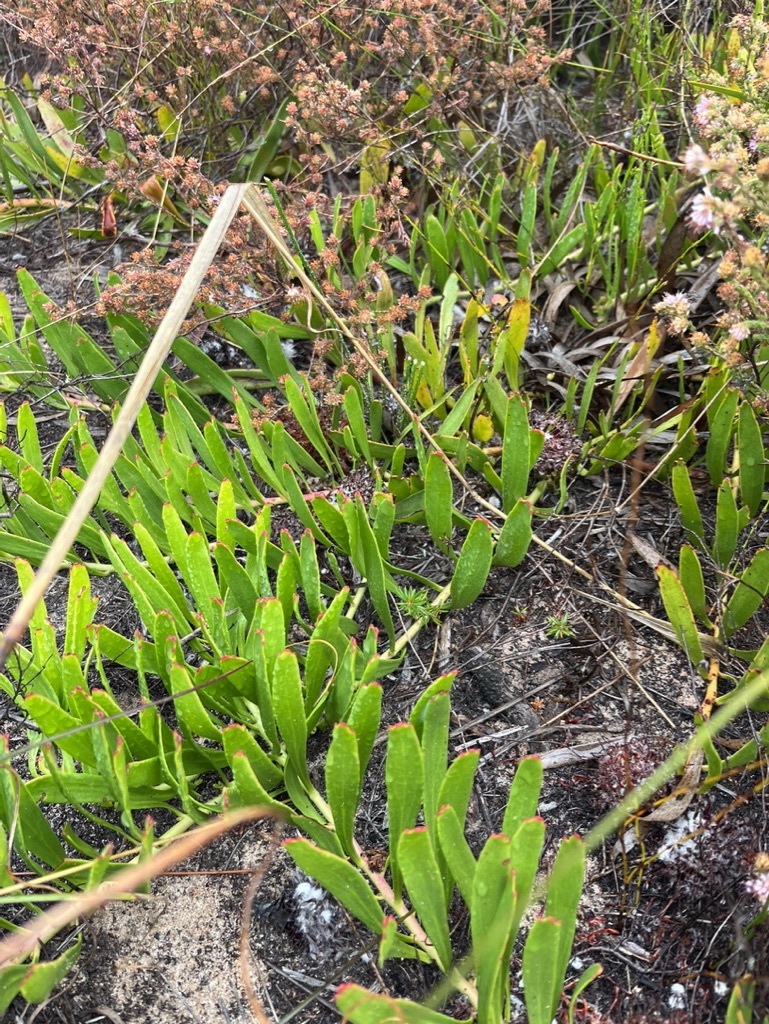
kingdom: Plantae
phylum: Tracheophyta
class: Magnoliopsida
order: Proteales
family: Proteaceae
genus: Leucospermum
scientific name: Leucospermum hypophyllocarpodendron
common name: Snakestem pincushion
